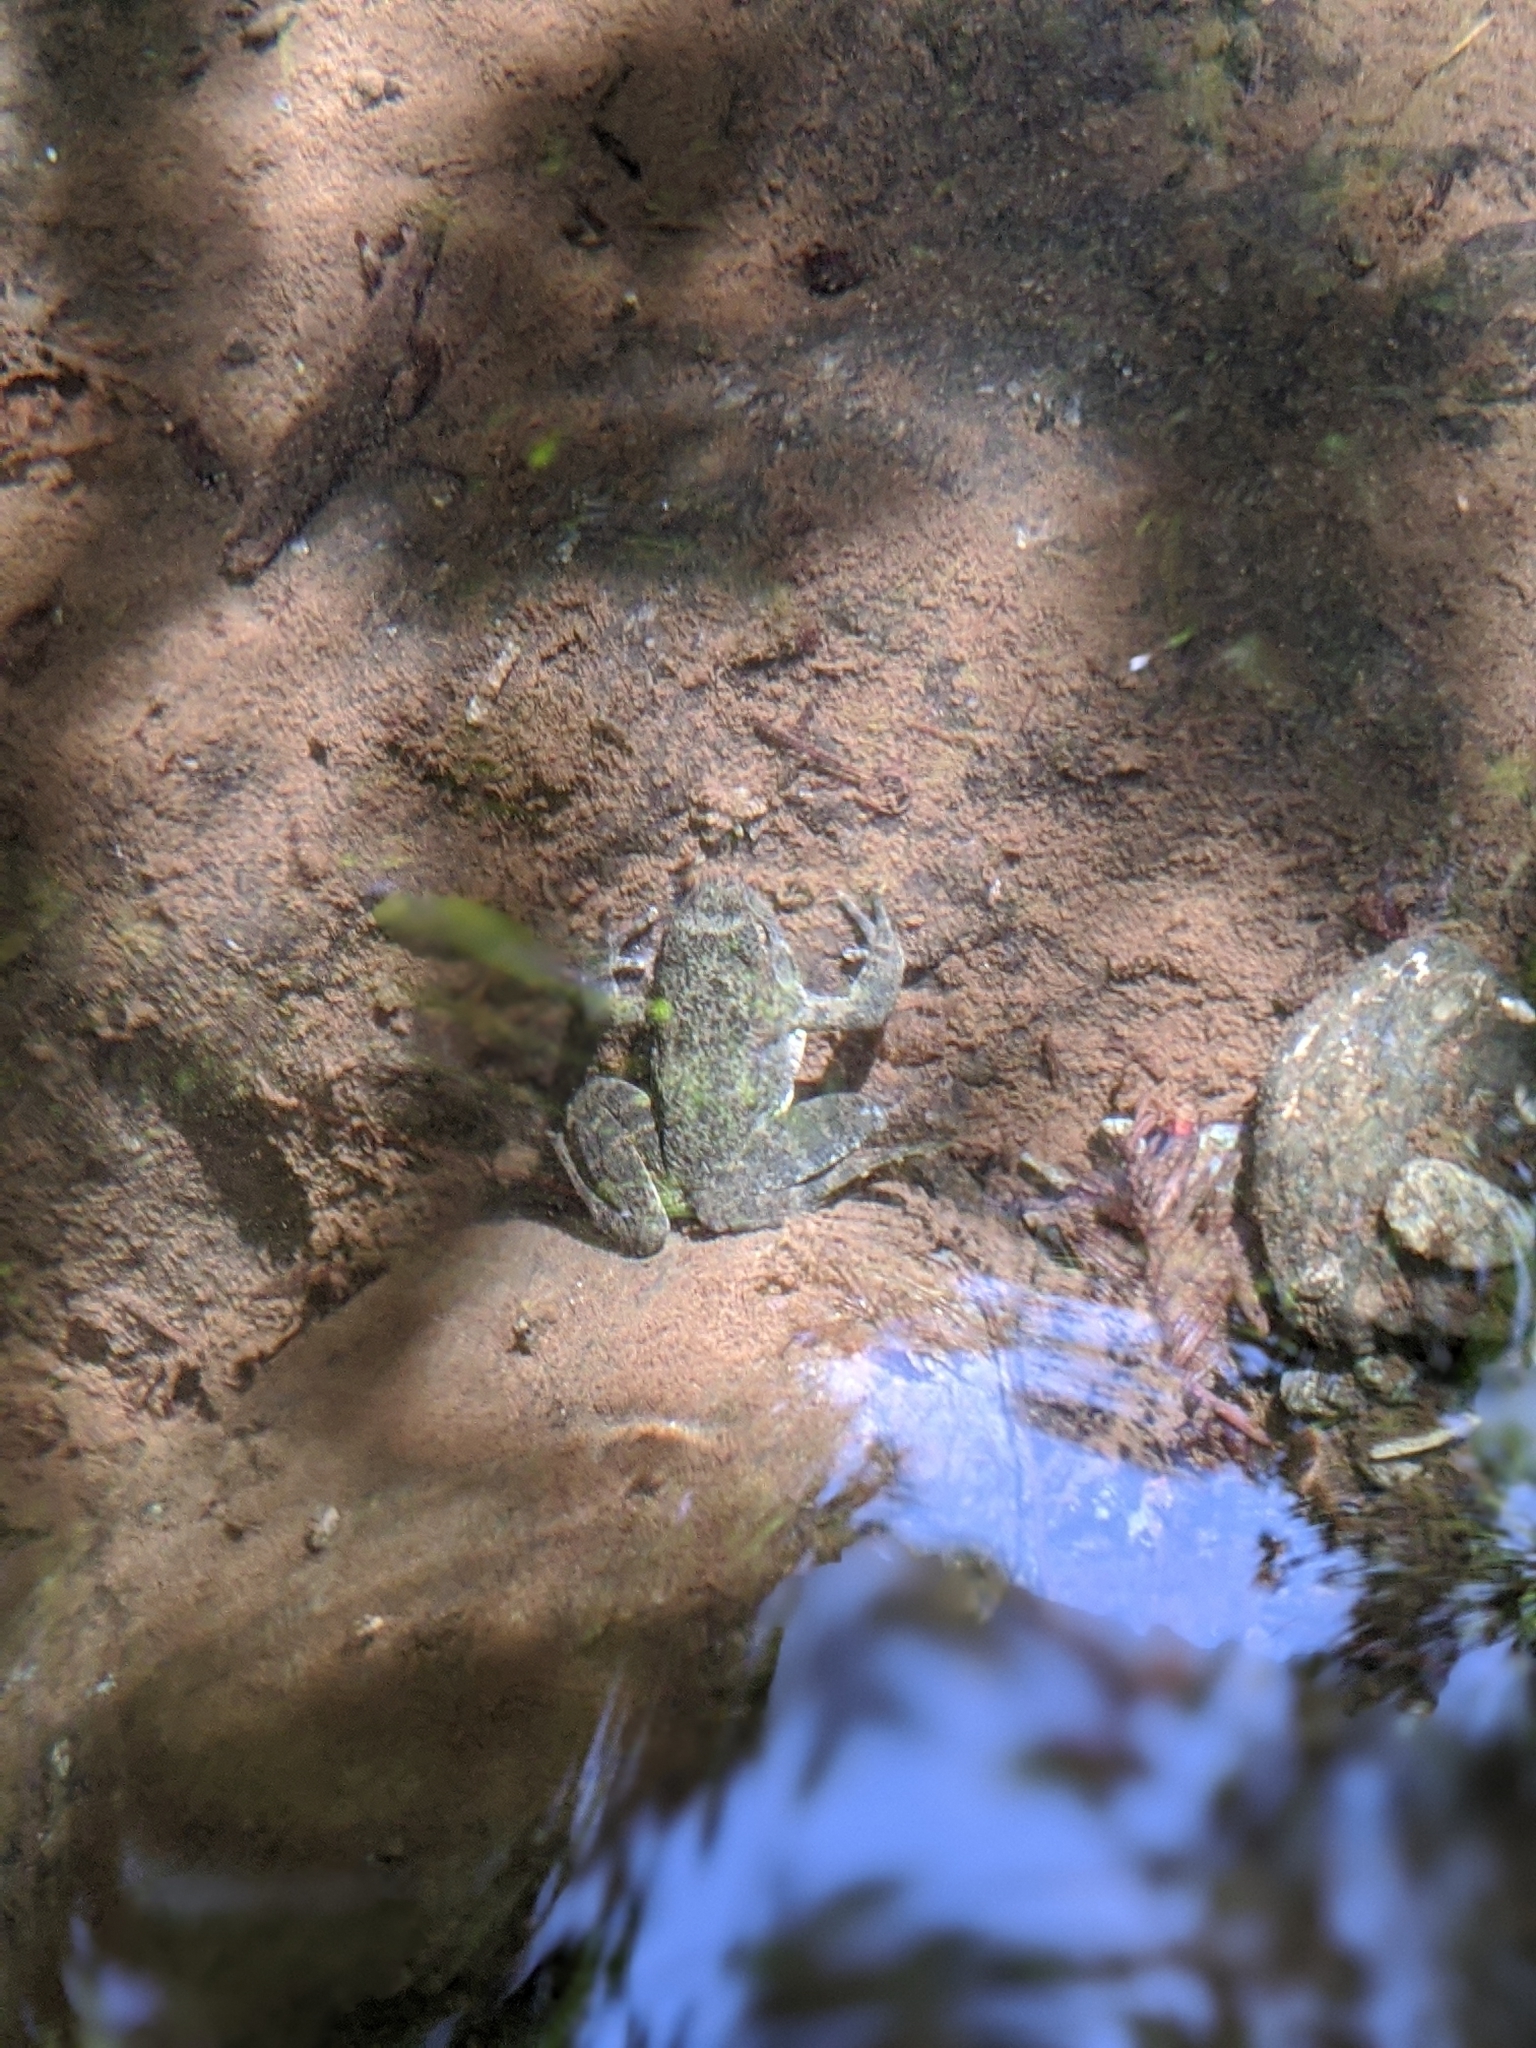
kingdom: Animalia
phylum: Chordata
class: Amphibia
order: Anura
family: Ranidae
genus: Rana
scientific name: Rana boylii
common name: Foothill yellow-legged frog
